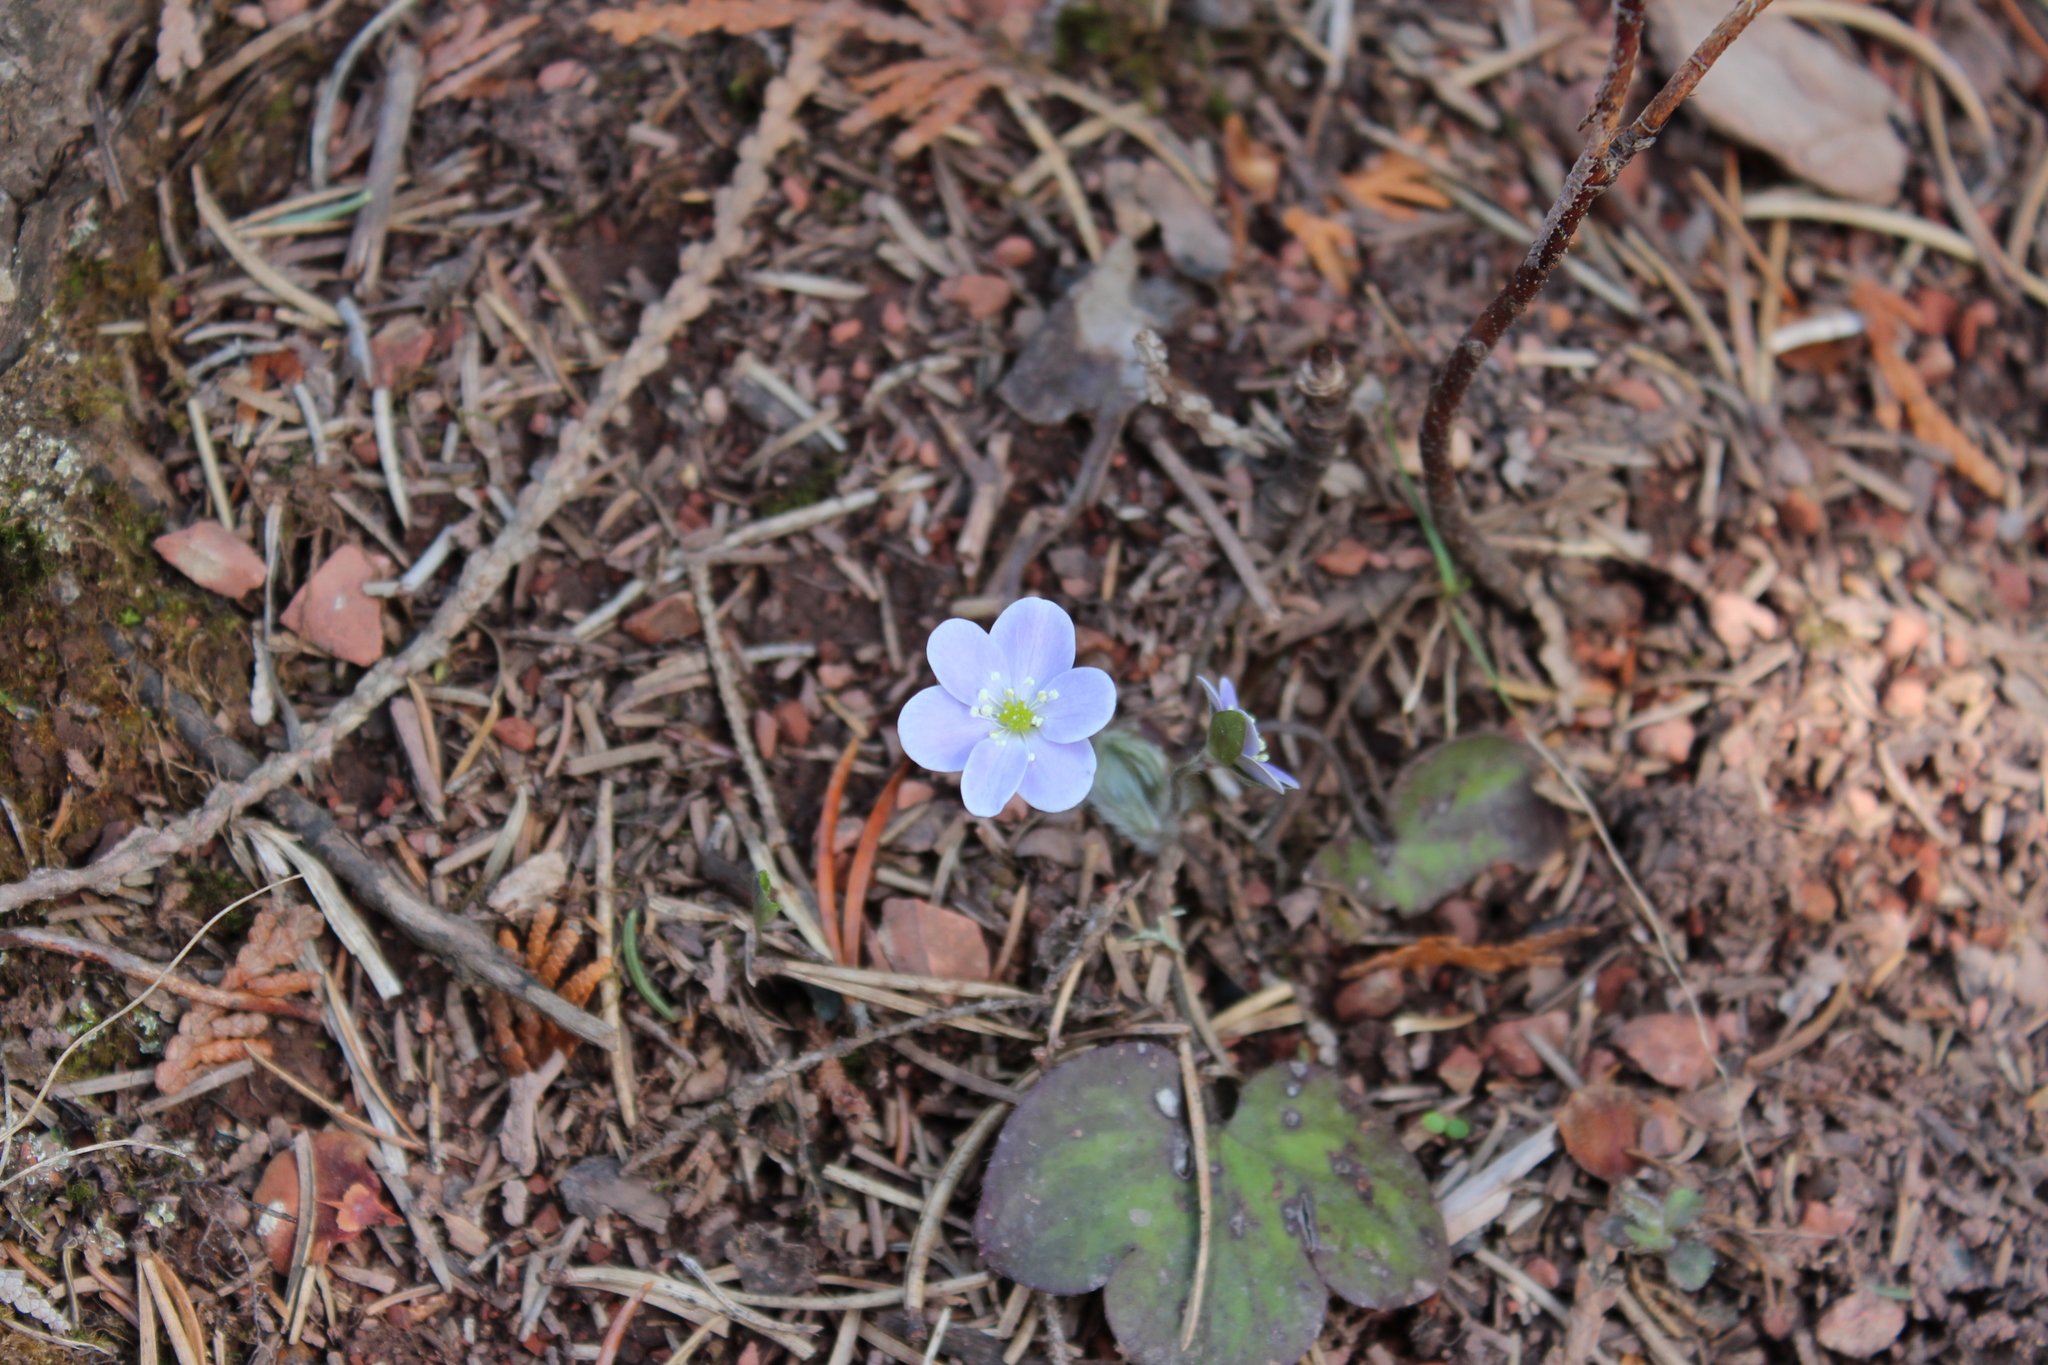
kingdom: Plantae
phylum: Tracheophyta
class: Magnoliopsida
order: Ranunculales
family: Ranunculaceae
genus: Hepatica
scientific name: Hepatica americana
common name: American hepatica
